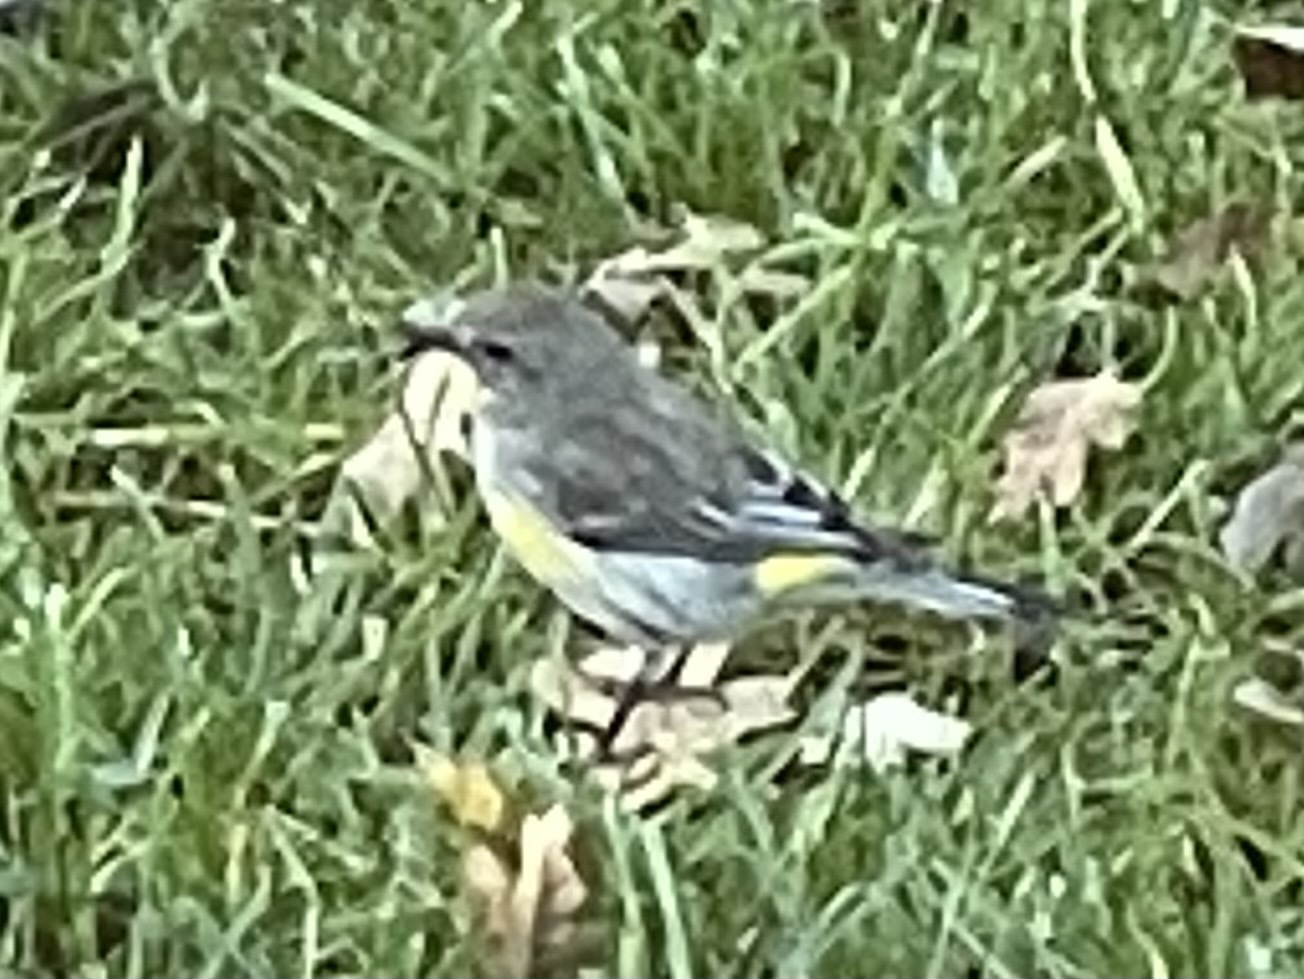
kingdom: Animalia
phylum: Chordata
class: Aves
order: Passeriformes
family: Parulidae
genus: Setophaga
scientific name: Setophaga coronata
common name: Myrtle warbler
